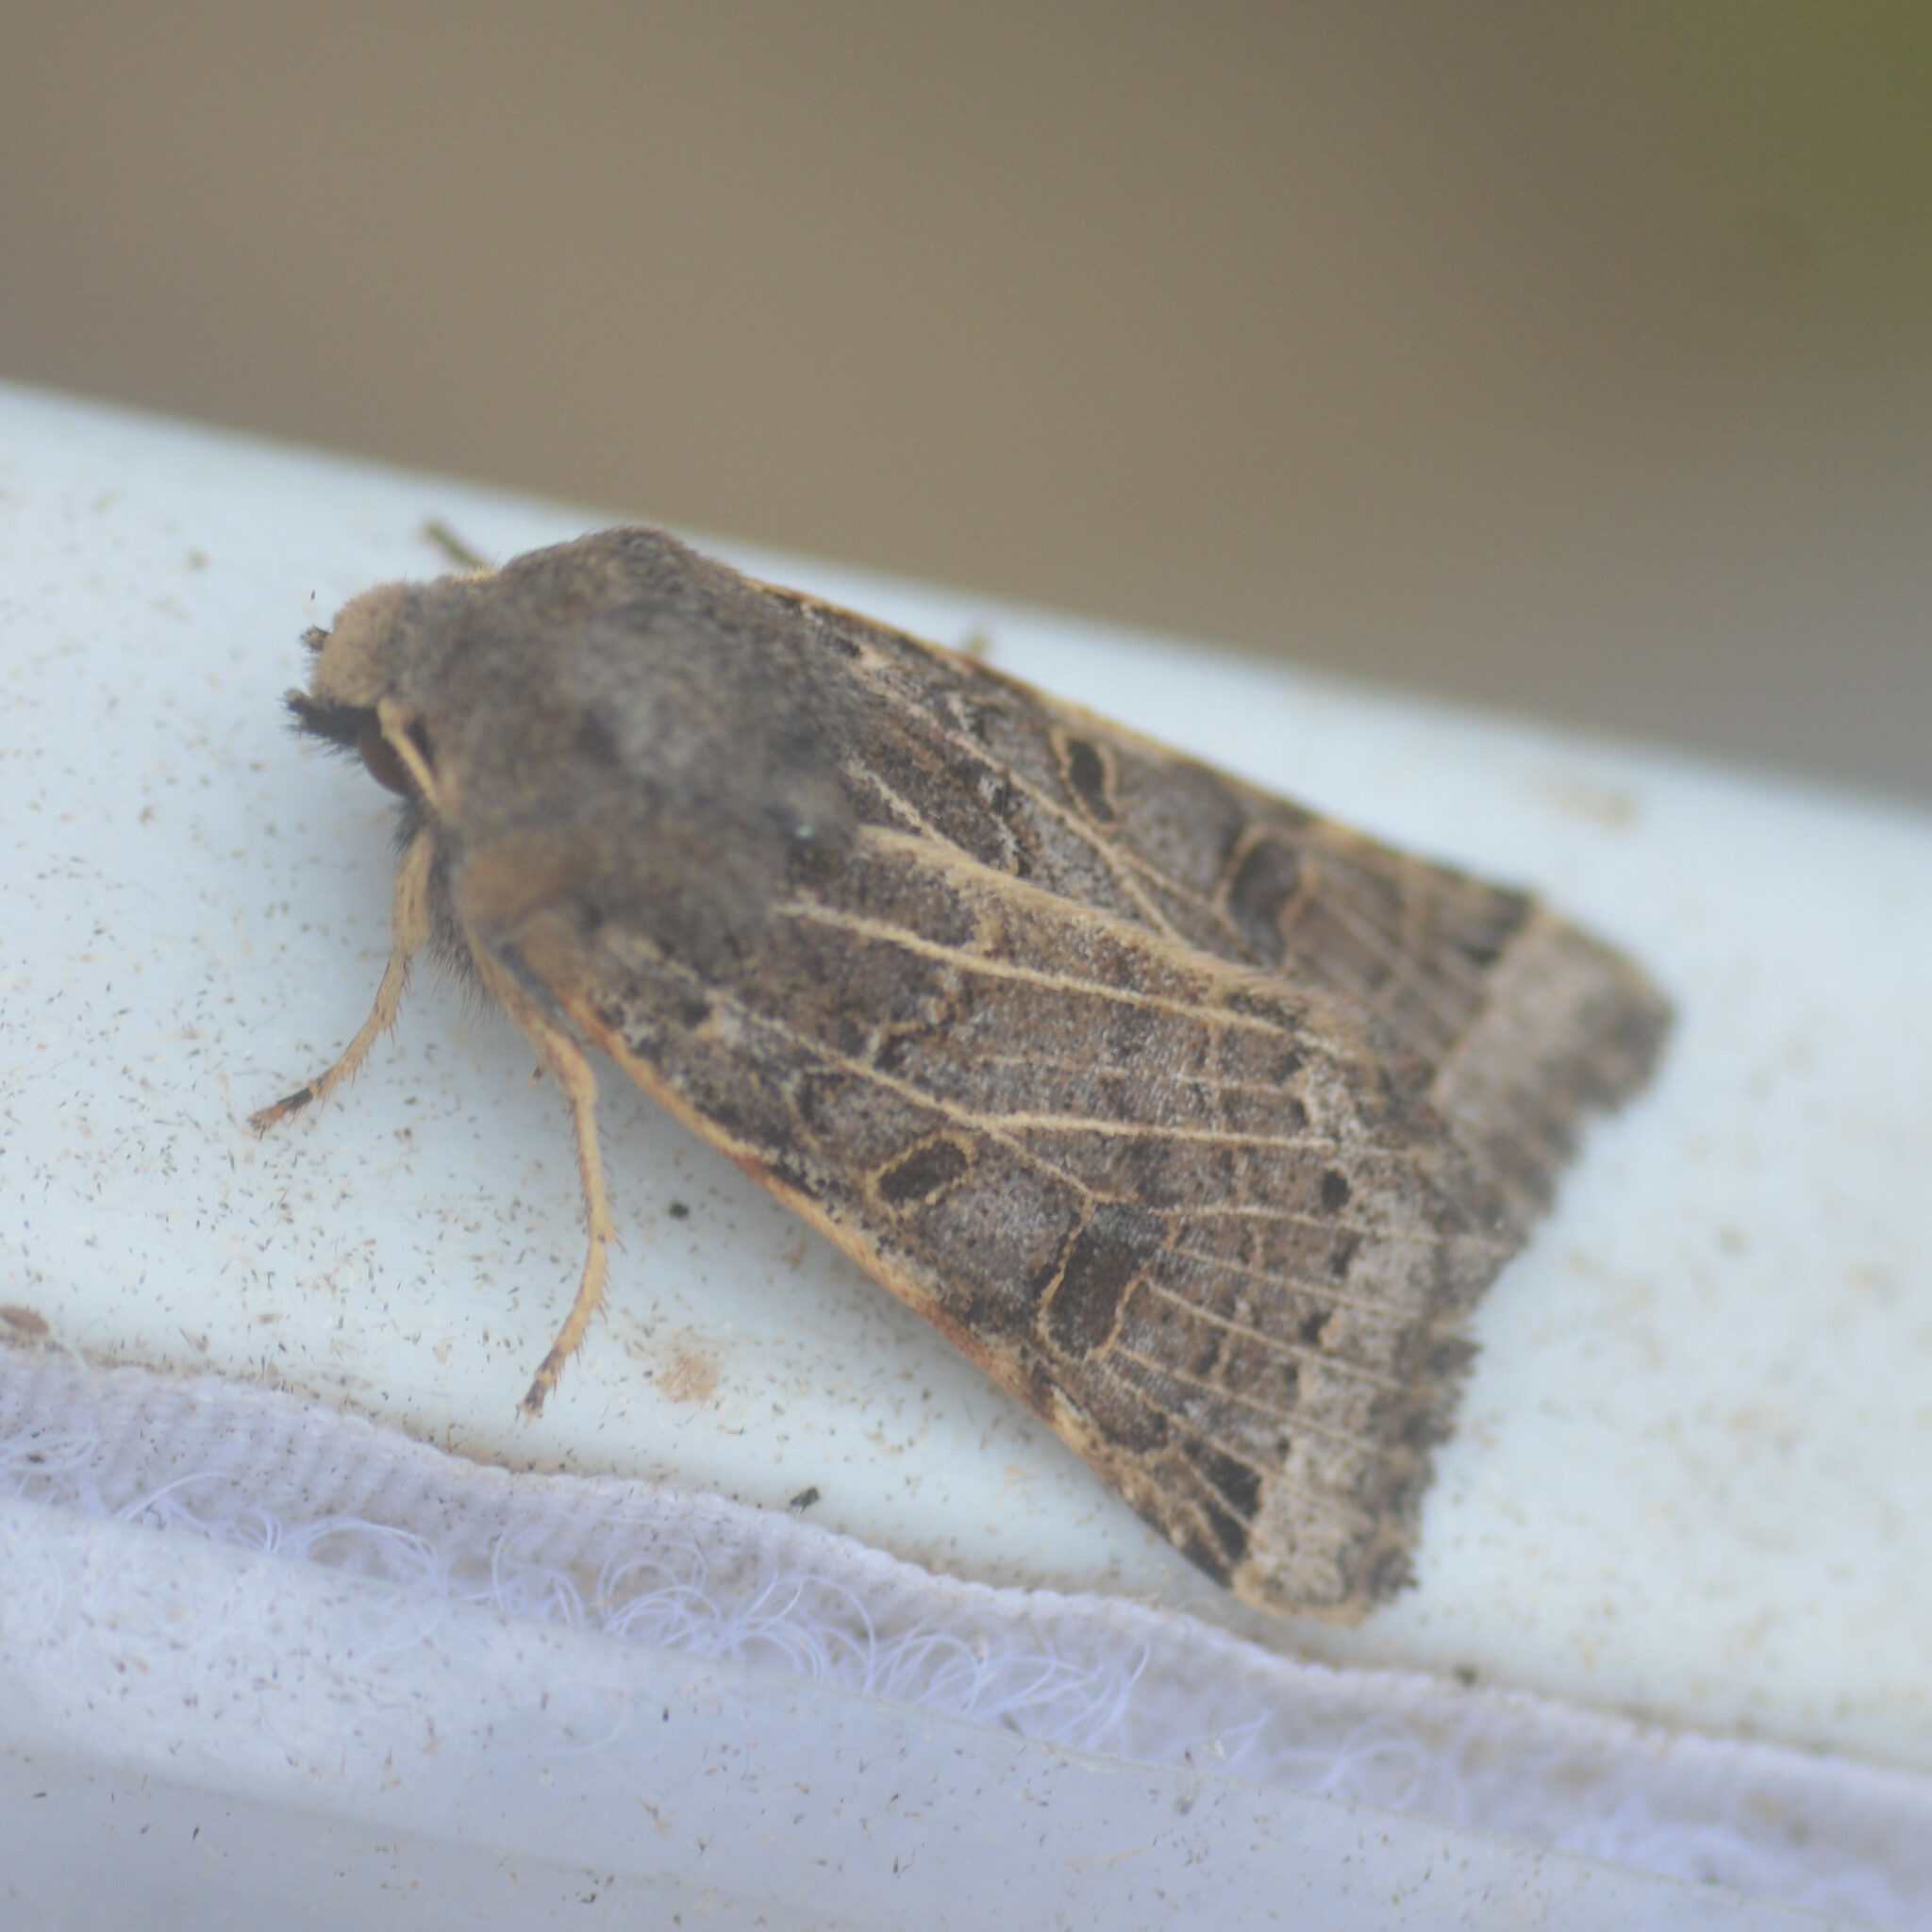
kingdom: Animalia
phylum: Arthropoda
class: Insecta
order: Lepidoptera
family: Noctuidae
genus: Agrochola
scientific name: Agrochola lunosa
